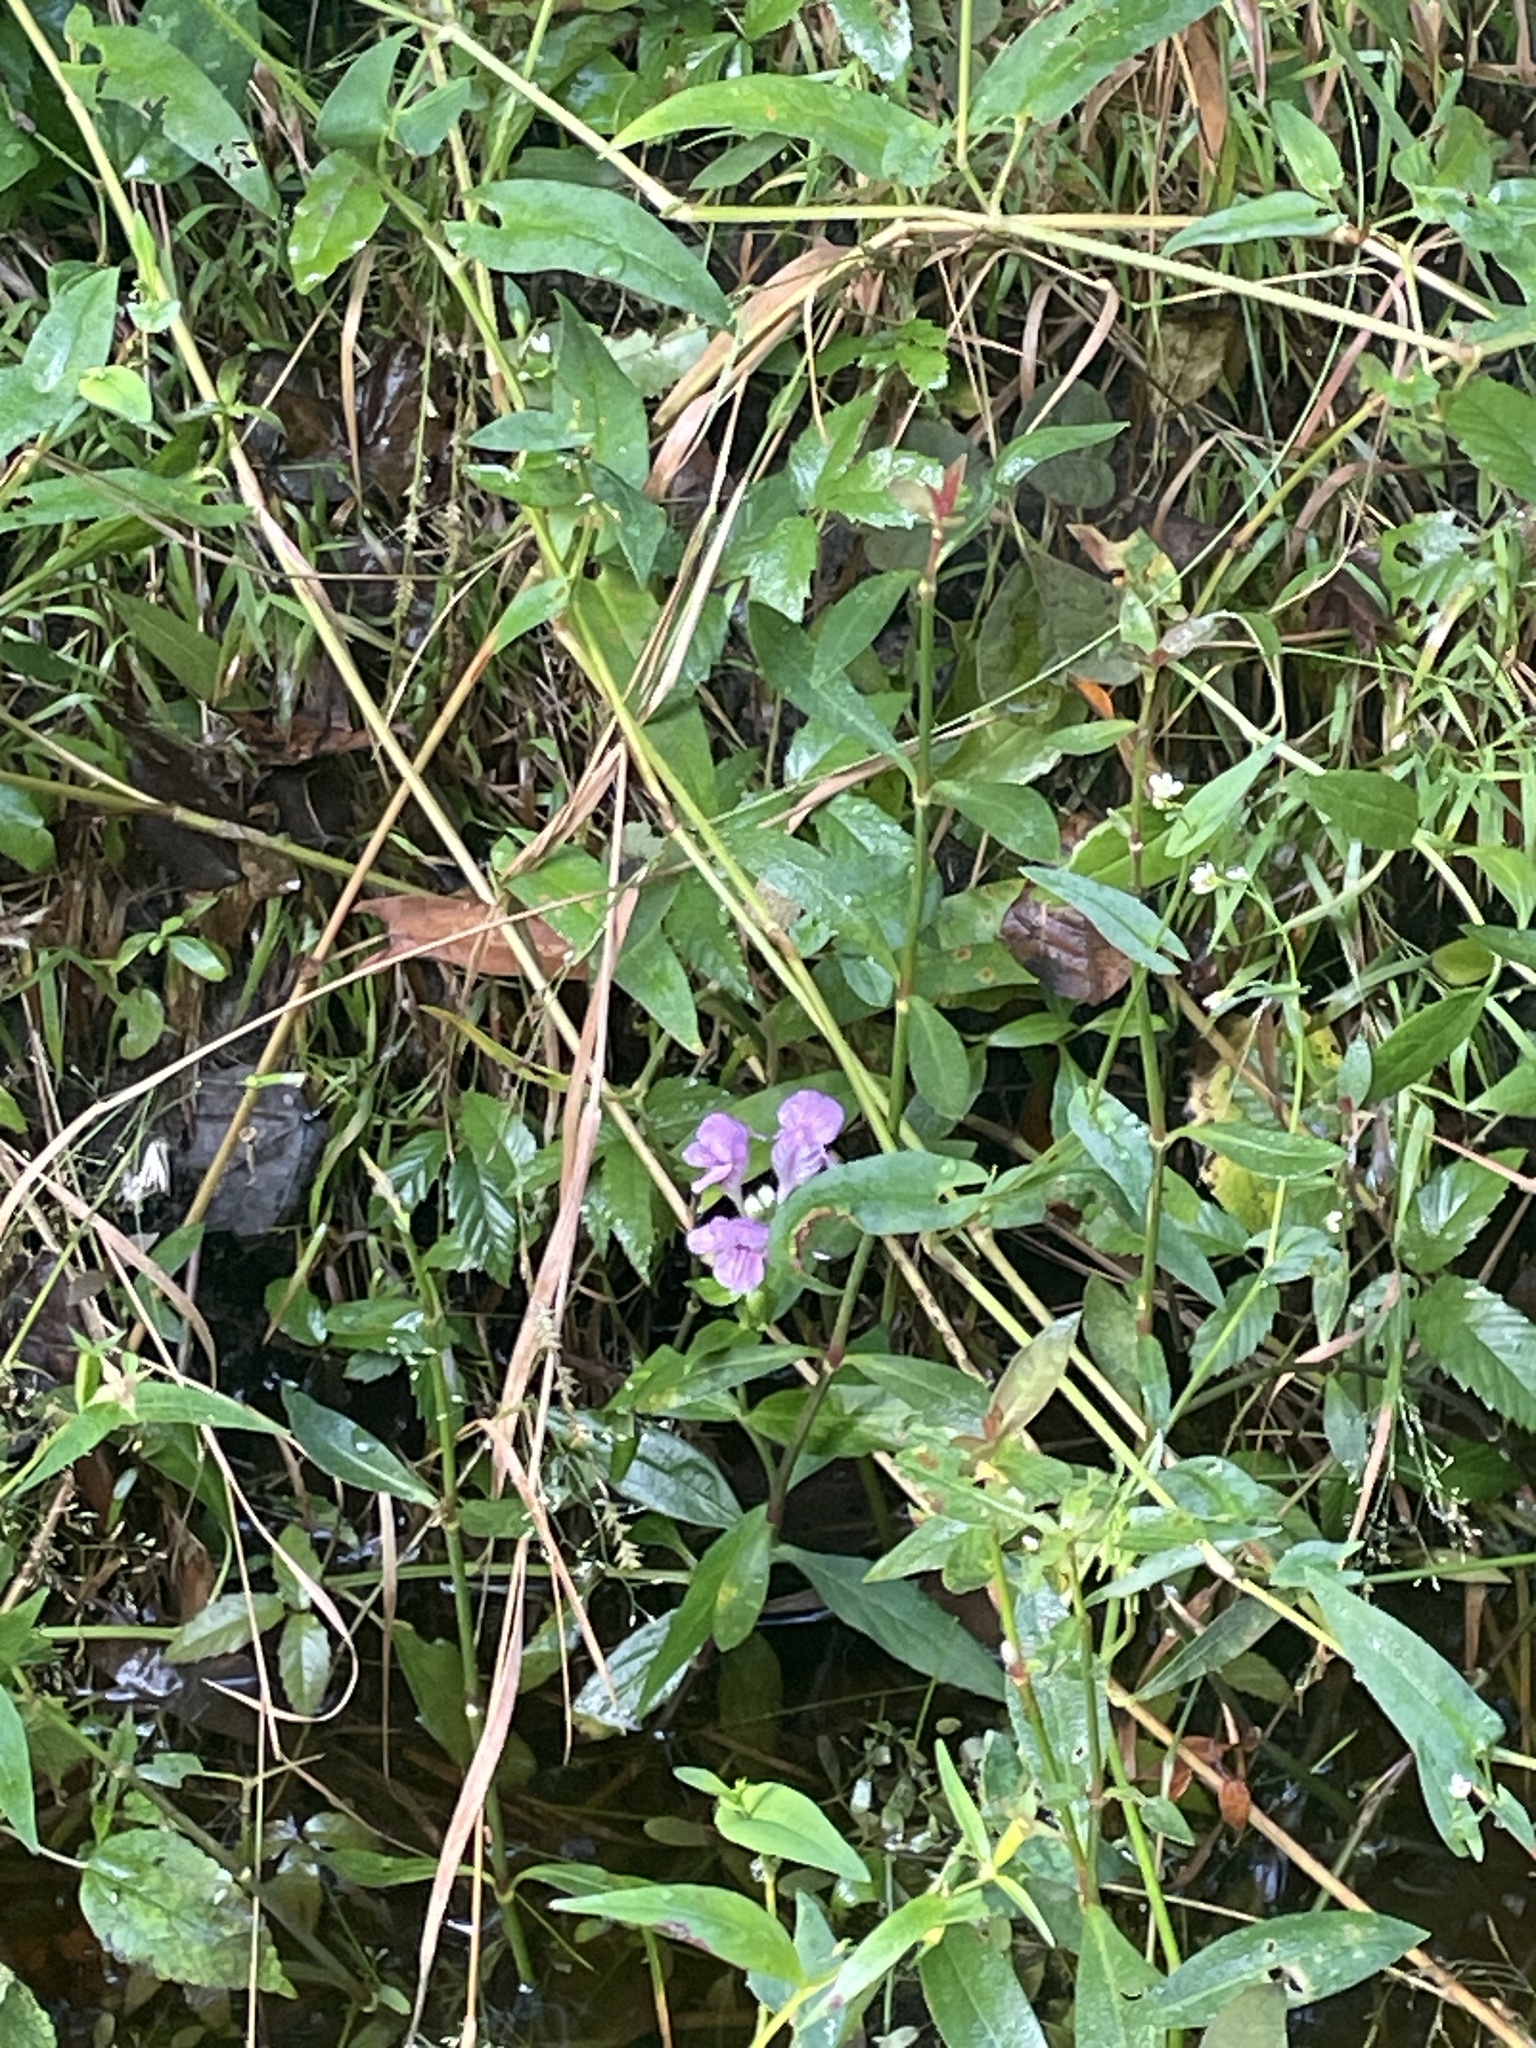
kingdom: Plantae
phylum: Tracheophyta
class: Magnoliopsida
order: Lamiales
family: Lamiaceae
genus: Macbridea
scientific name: Macbridea caroliniana
